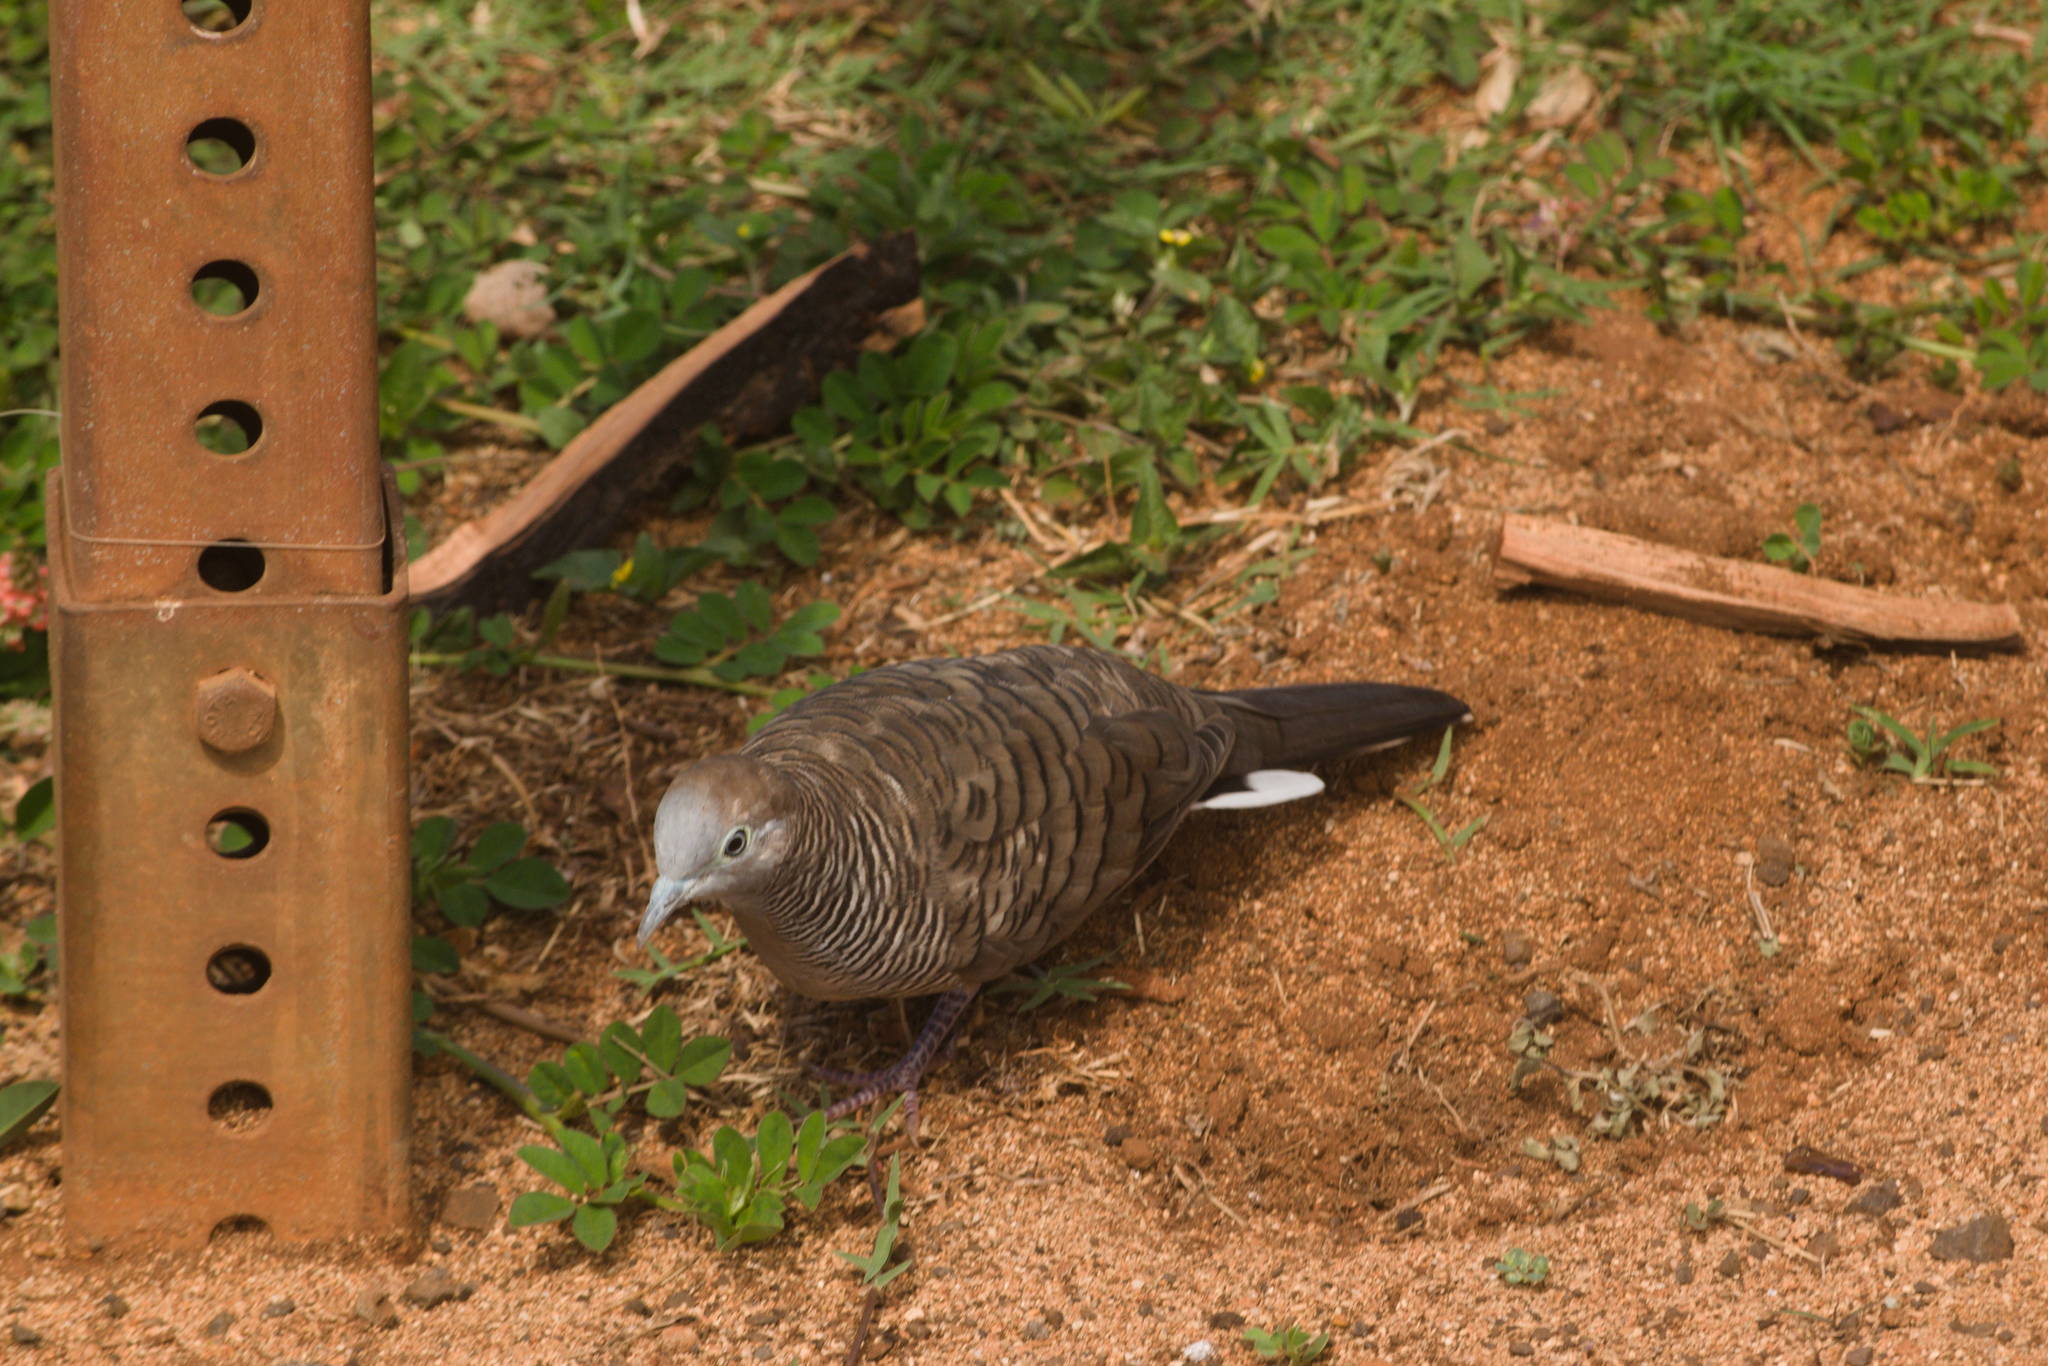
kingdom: Animalia
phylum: Chordata
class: Aves
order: Columbiformes
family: Columbidae
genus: Geopelia
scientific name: Geopelia striata
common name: Zebra dove
